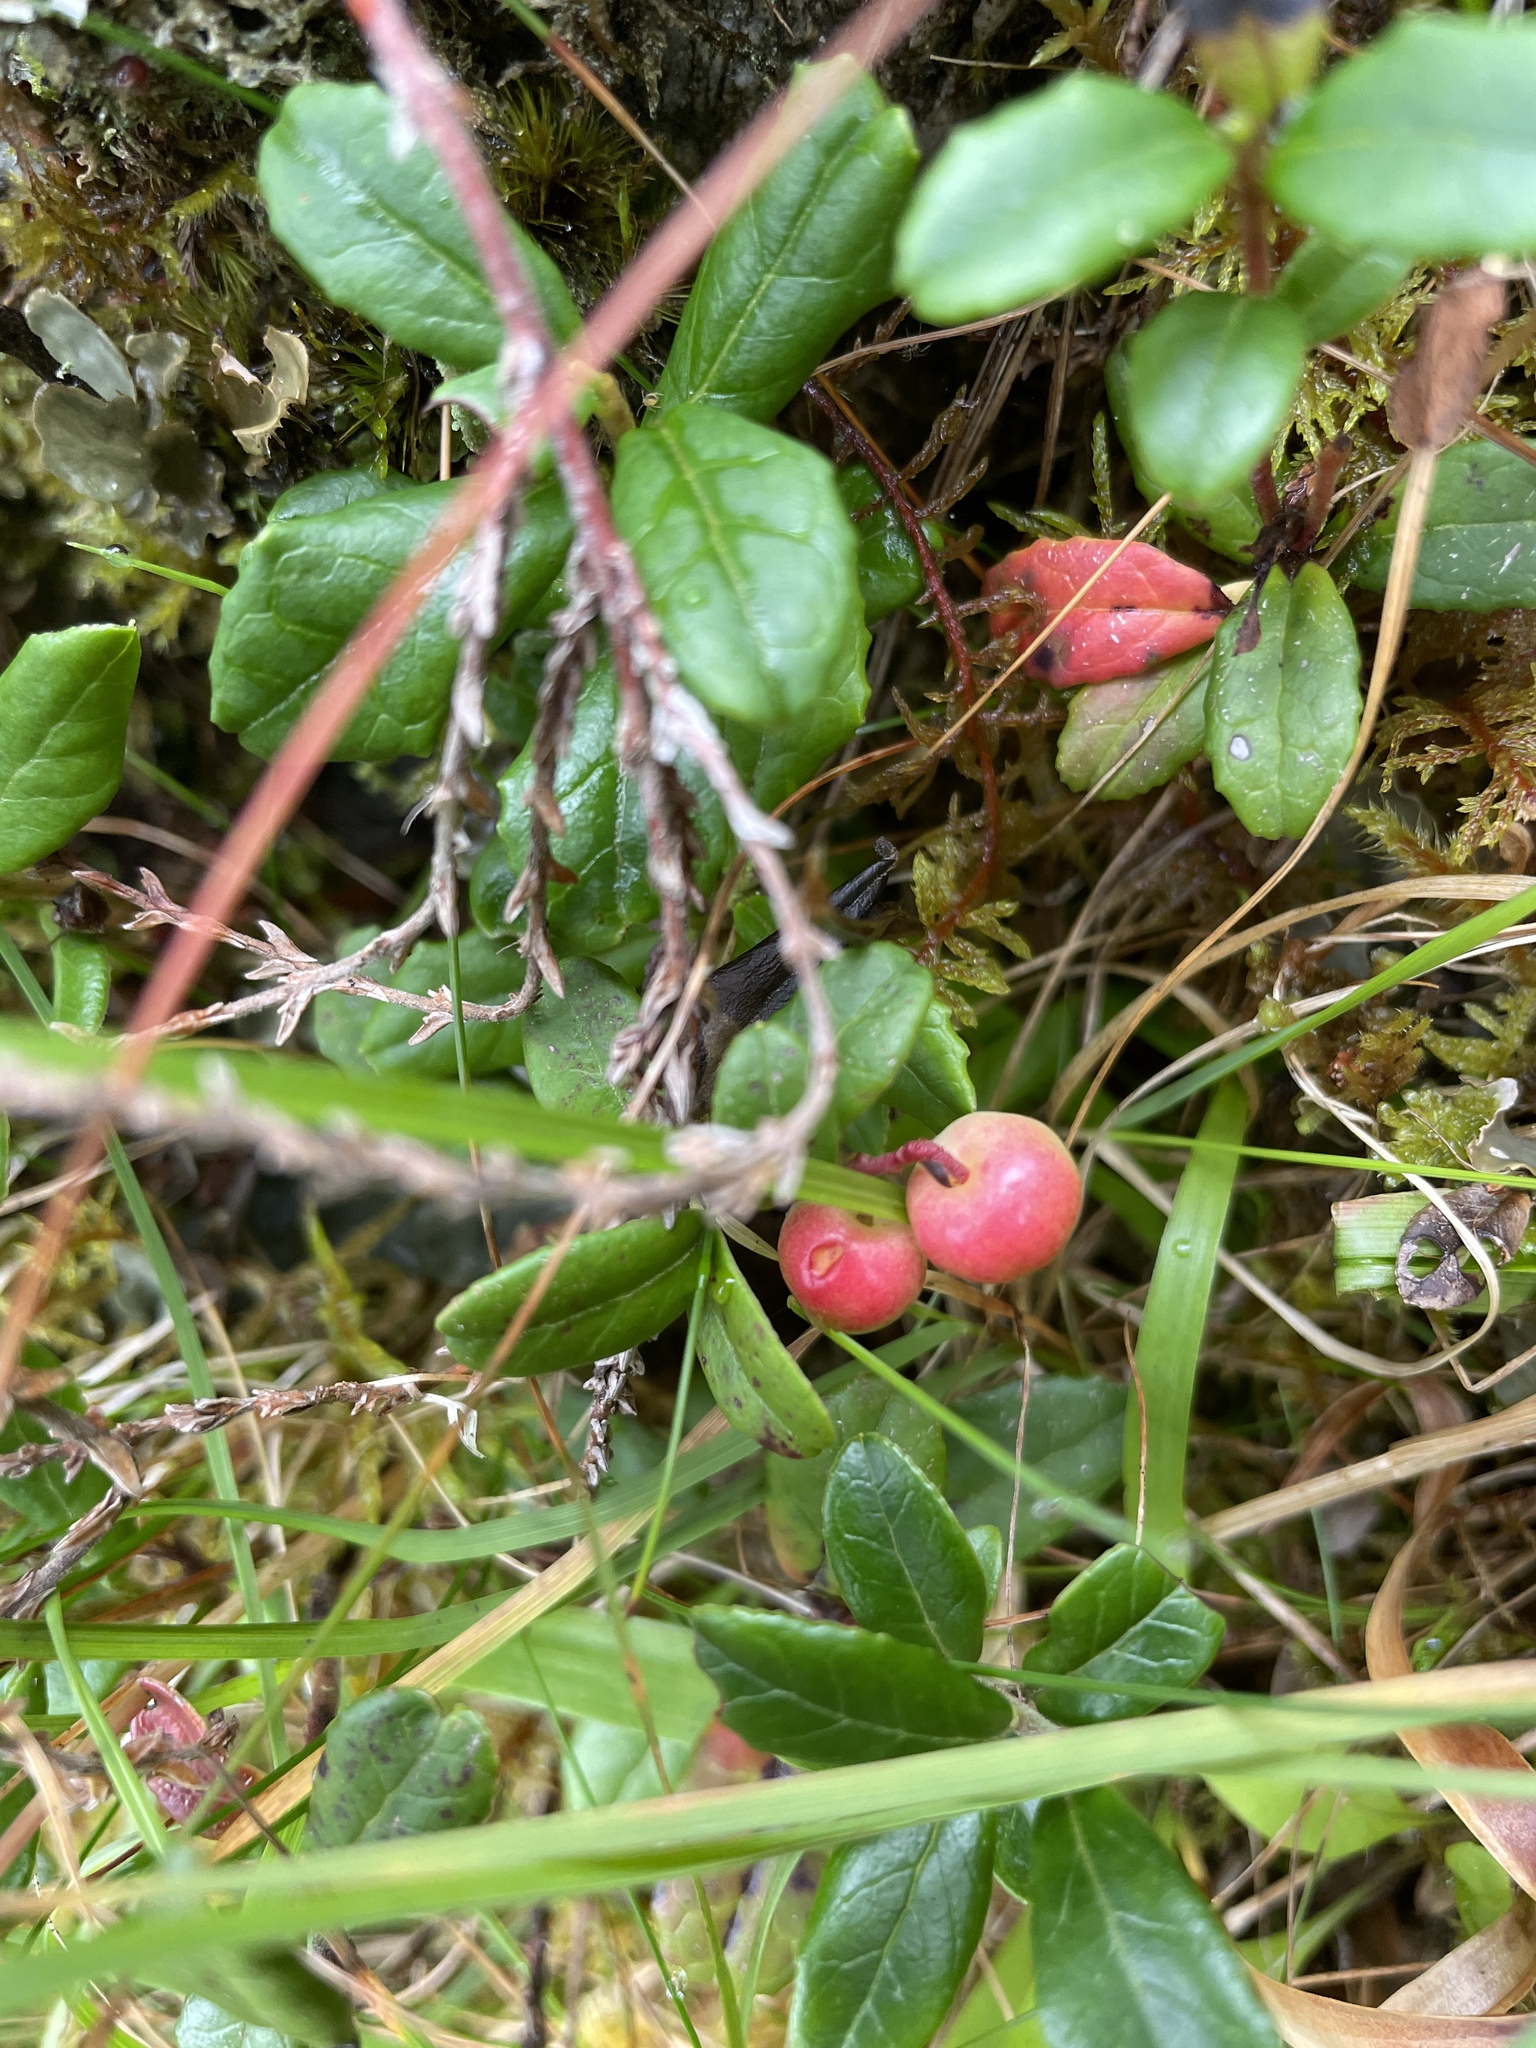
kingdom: Plantae
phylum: Tracheophyta
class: Magnoliopsida
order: Ericales
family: Ericaceae
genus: Vaccinium
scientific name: Vaccinium vitis-idaea
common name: Cowberry
